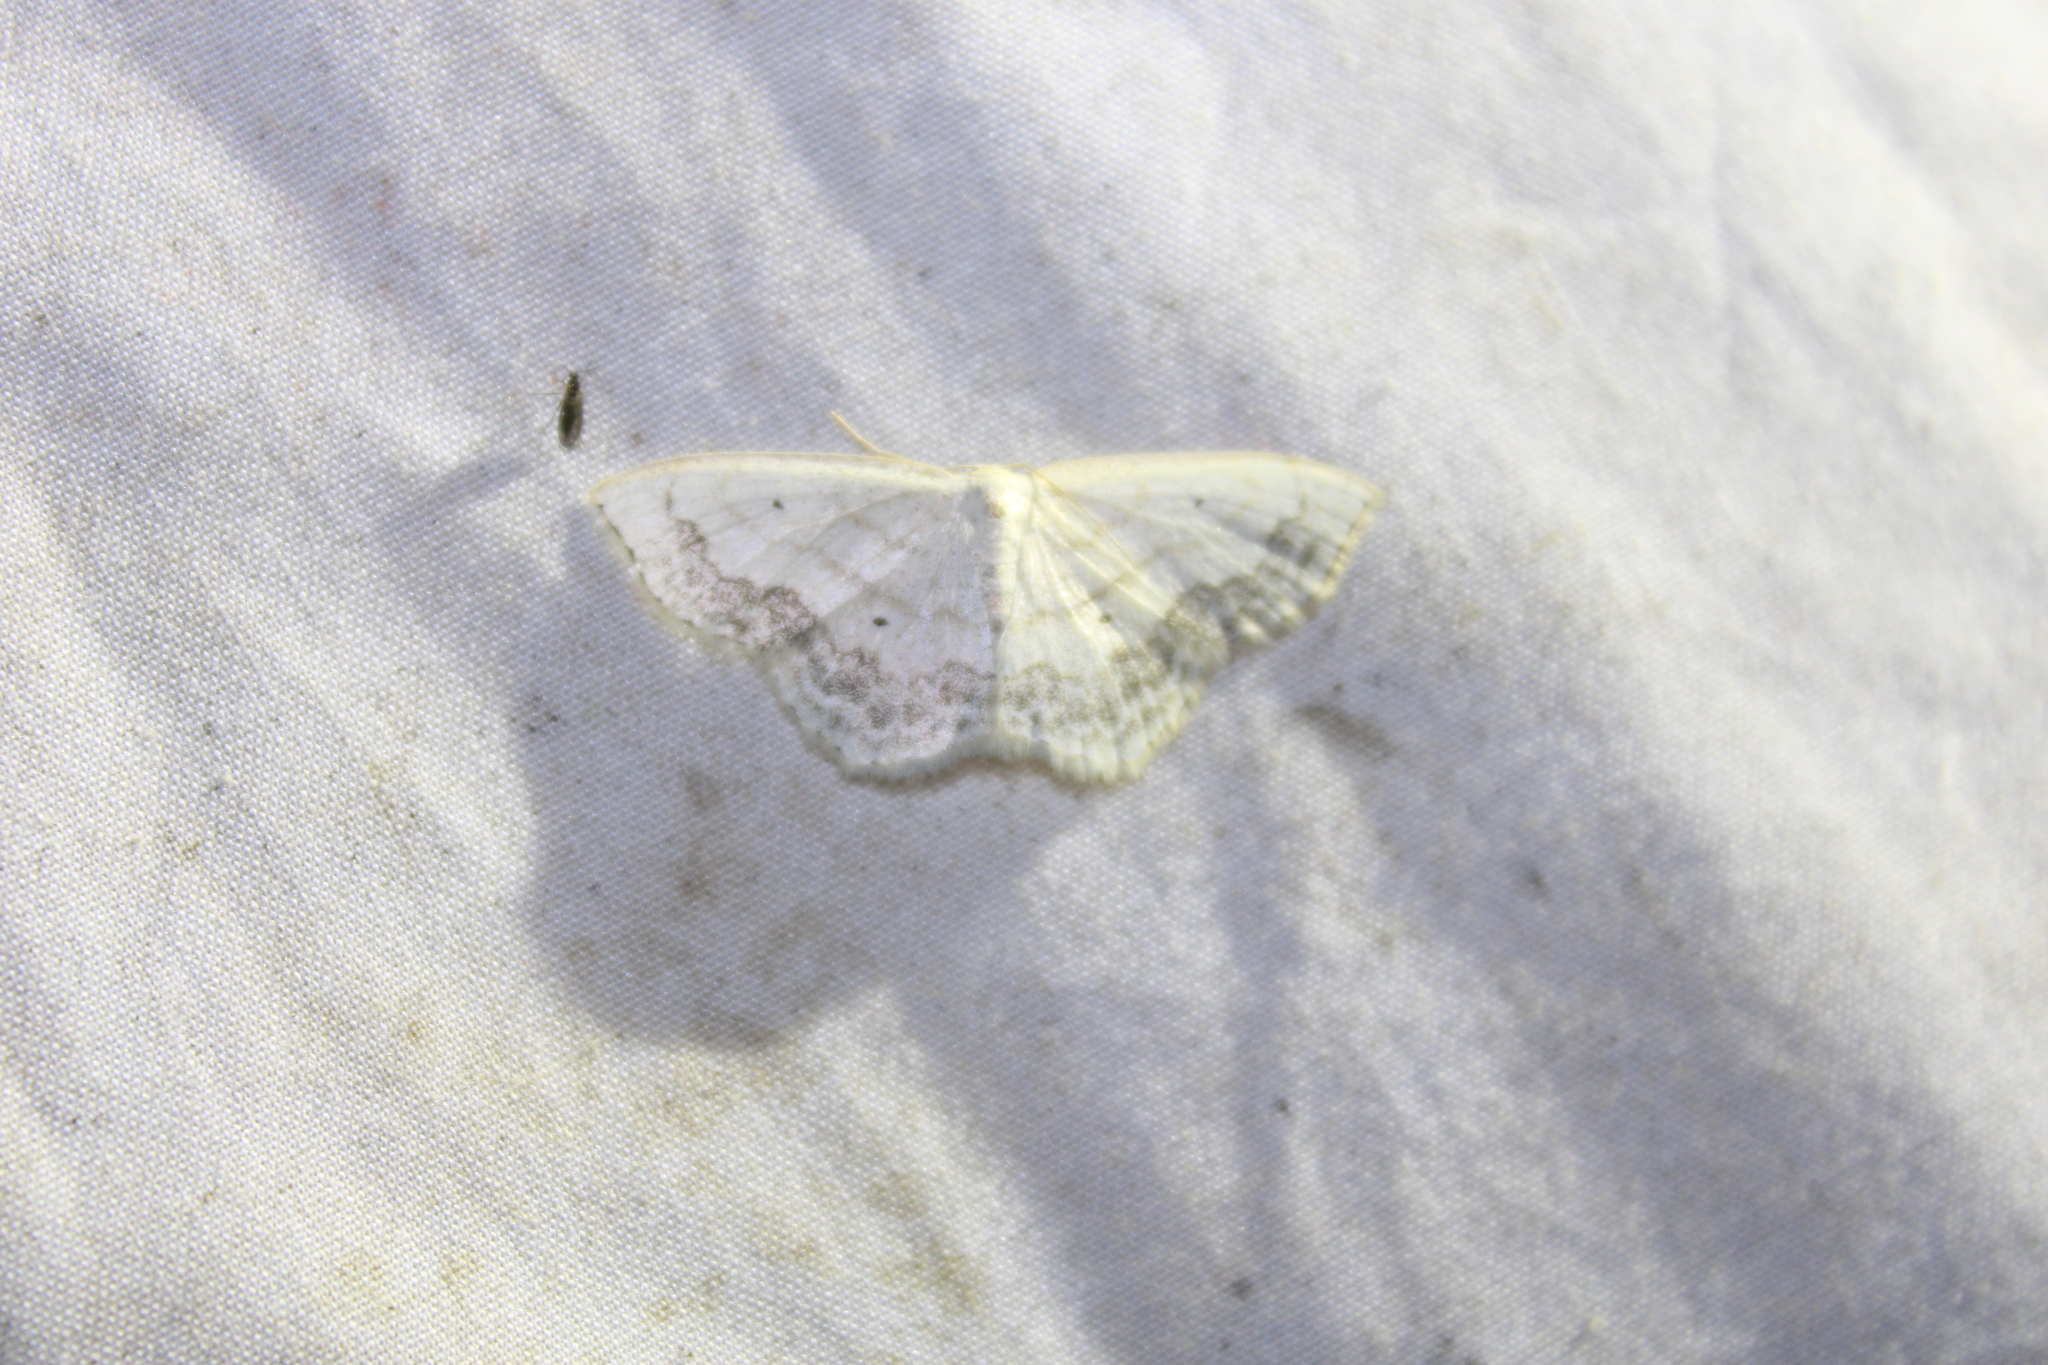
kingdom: Animalia
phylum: Arthropoda
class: Insecta
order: Lepidoptera
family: Geometridae
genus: Scopula
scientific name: Scopula limboundata
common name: Large lace border
